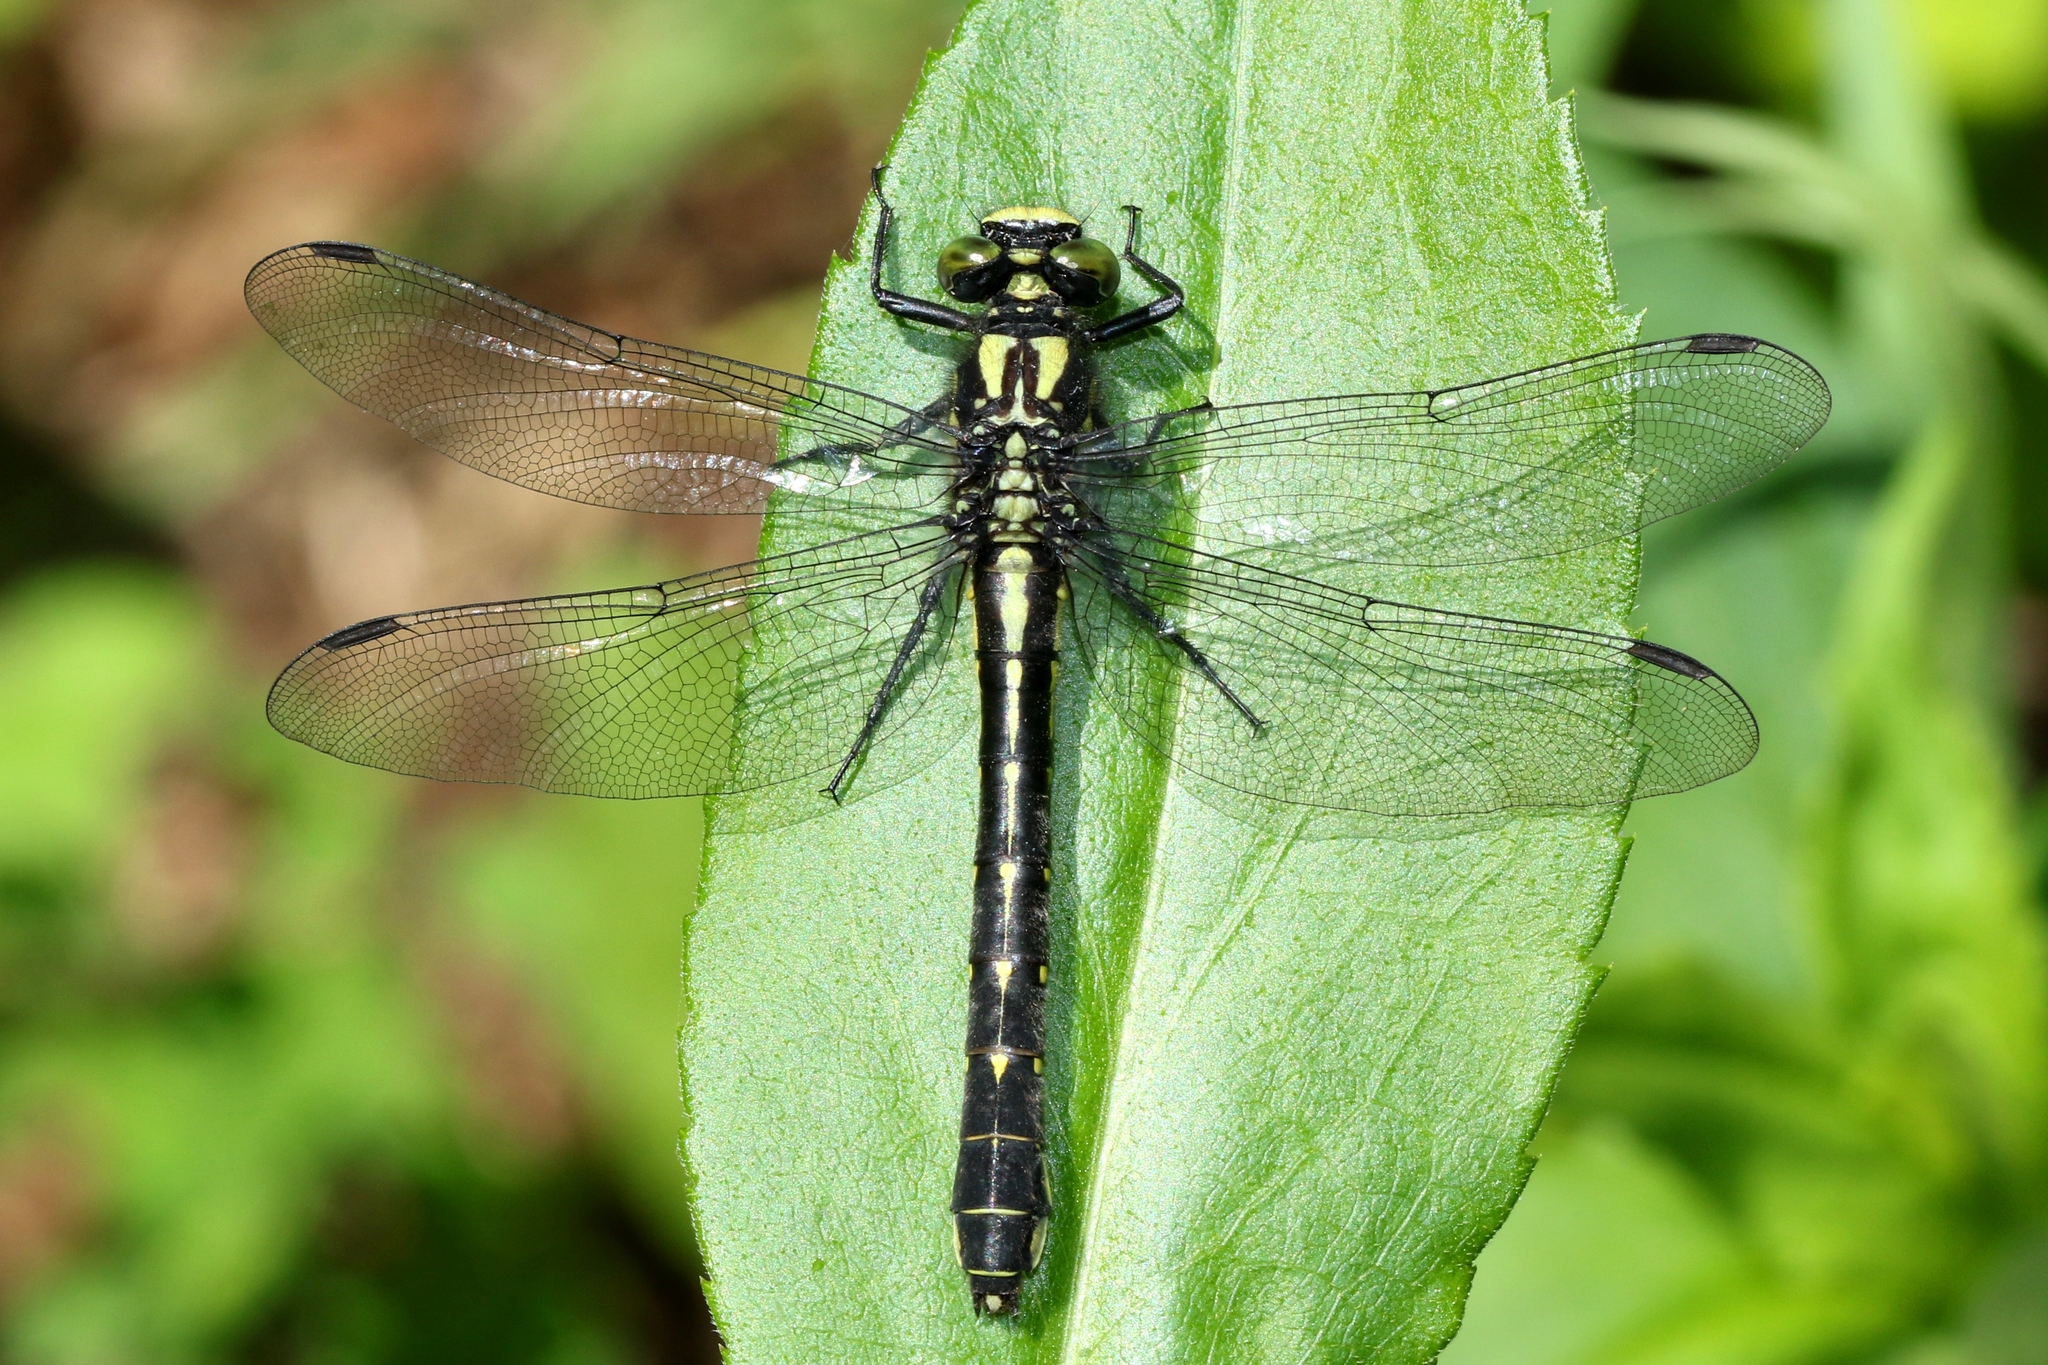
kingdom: Animalia
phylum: Arthropoda
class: Insecta
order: Odonata
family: Gomphidae
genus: Hylogomphus
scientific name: Hylogomphus adelphus
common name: Mustached clubtail
